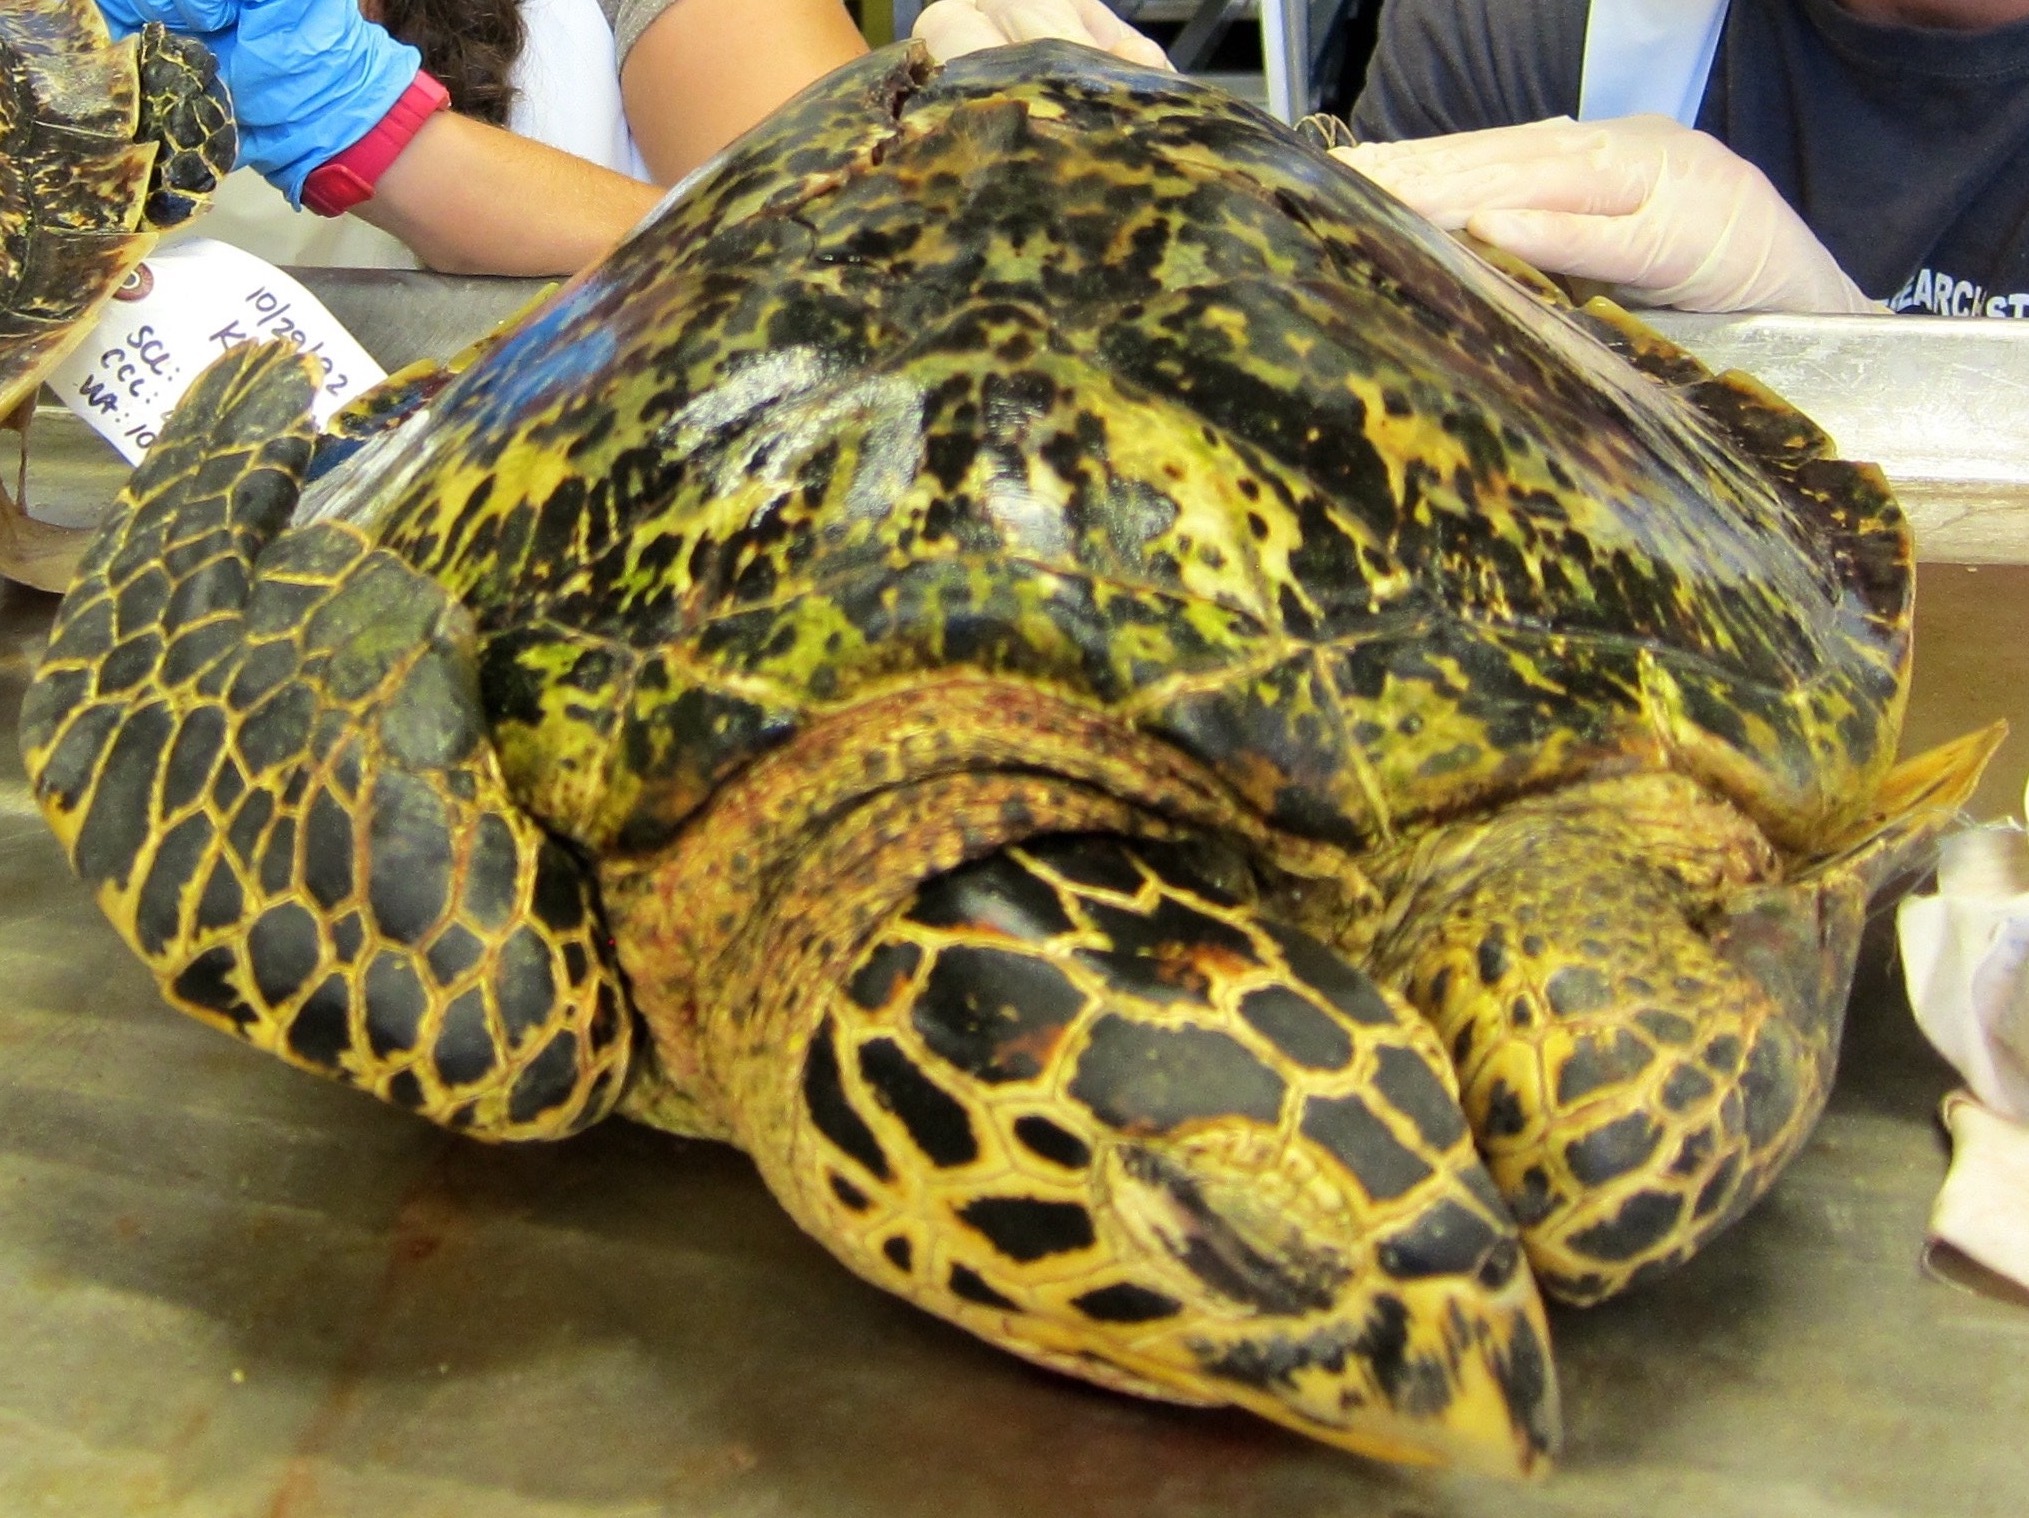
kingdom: Animalia
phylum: Chordata
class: Testudines
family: Cheloniidae
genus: Eretmochelys
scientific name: Eretmochelys imbricata
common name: Hawksbill turtle
